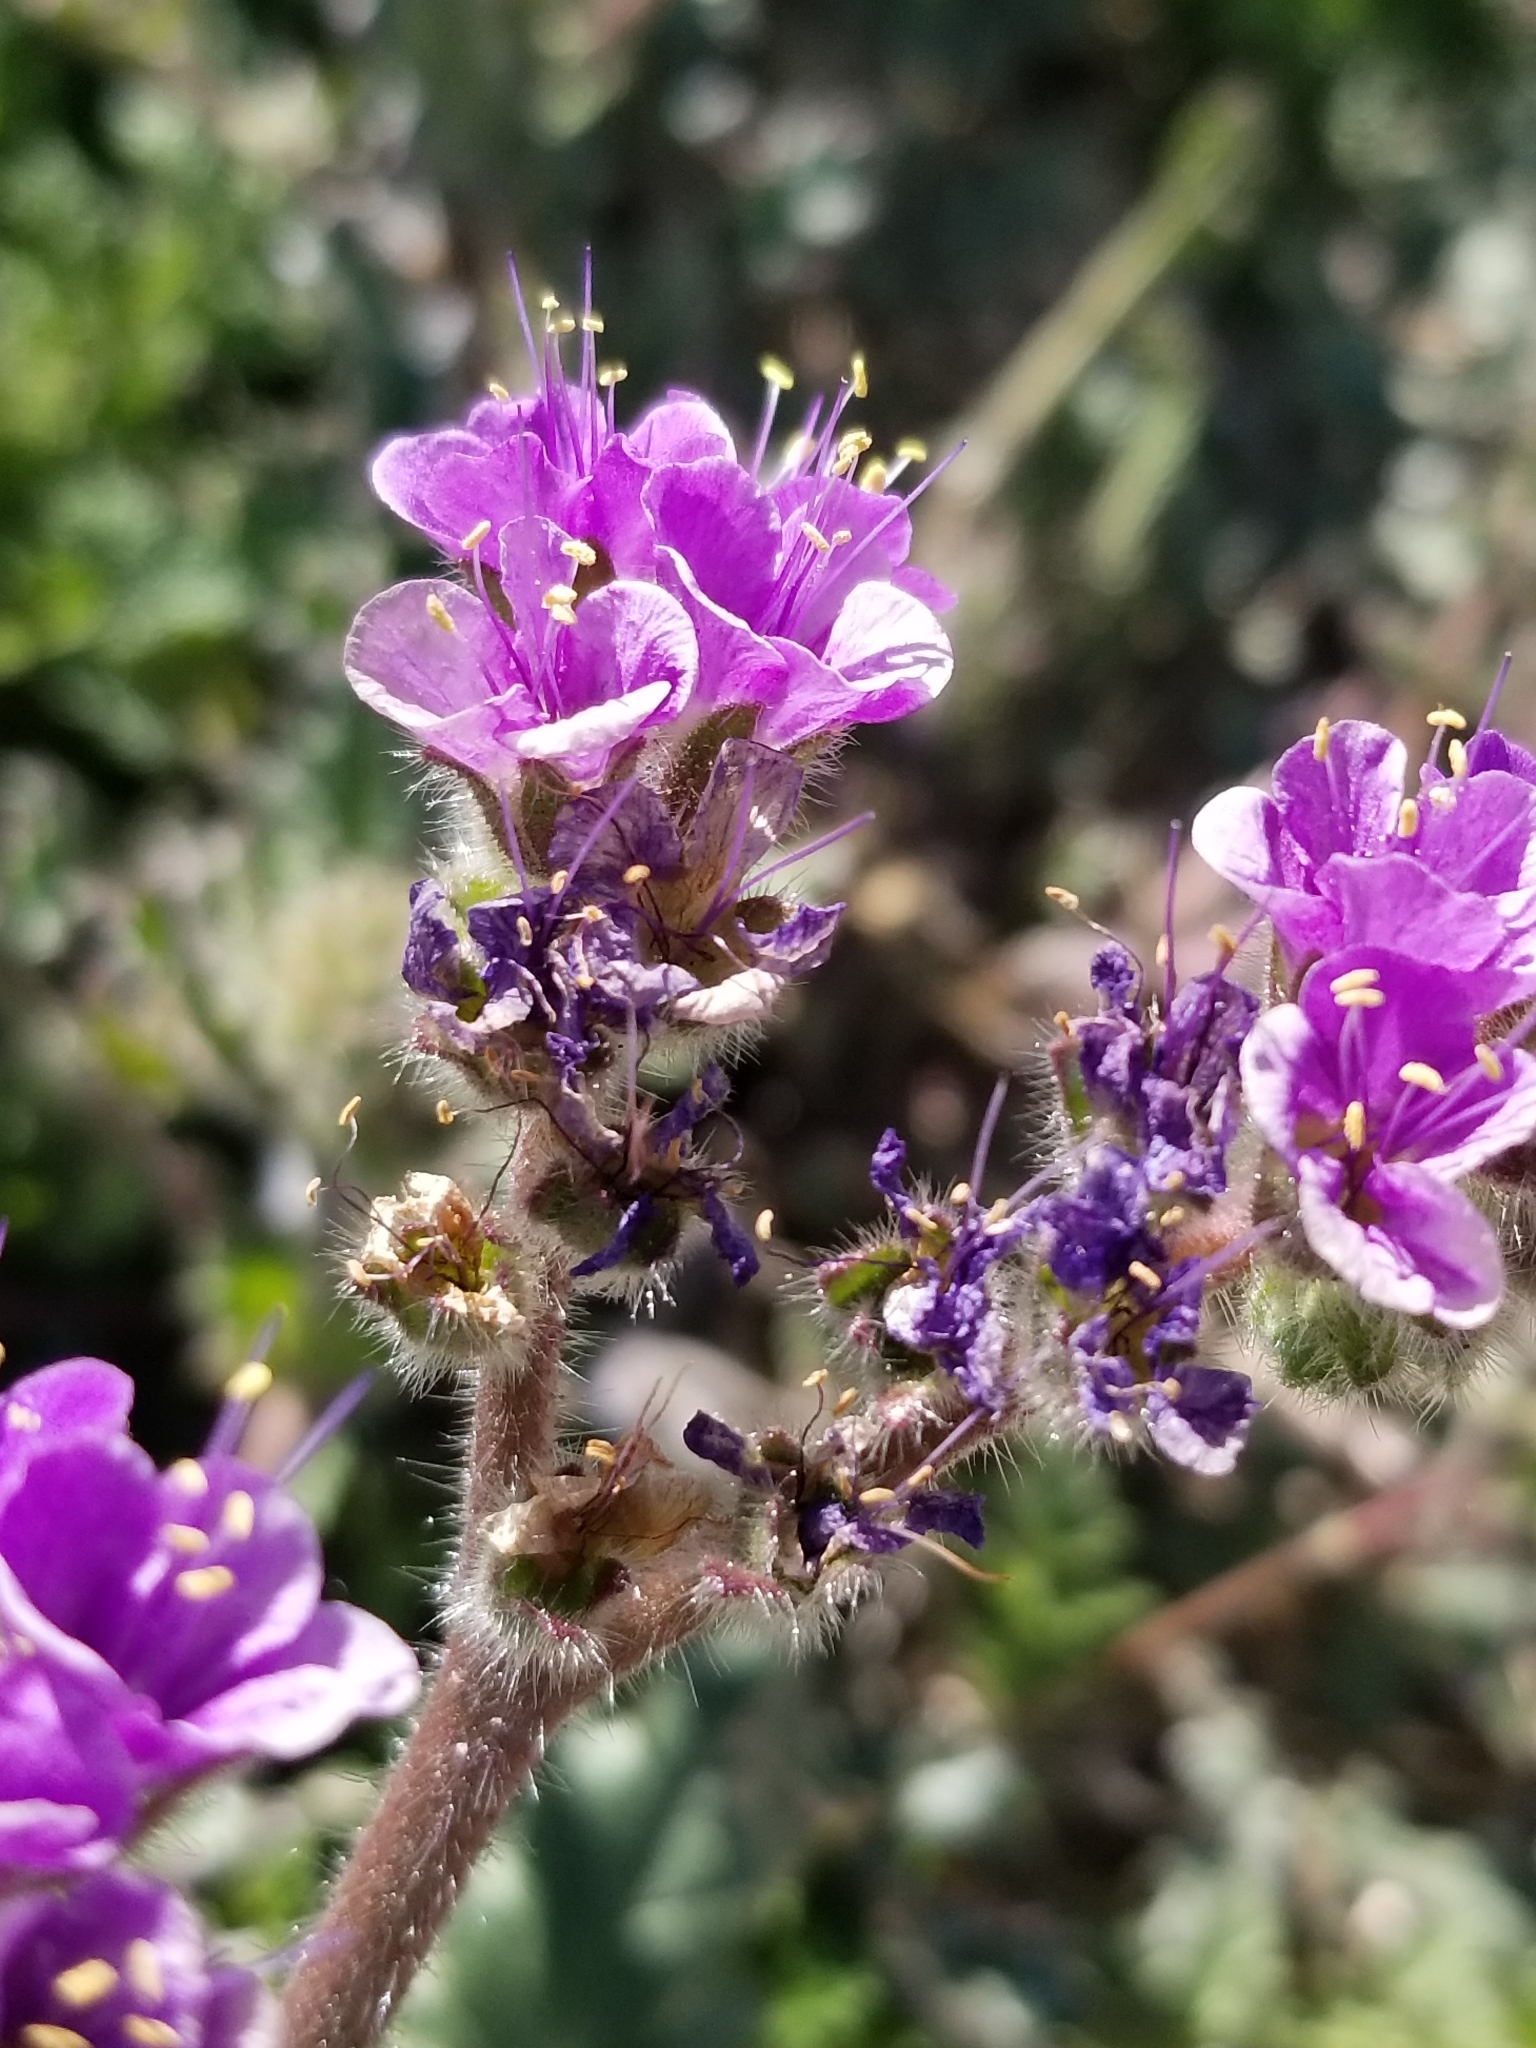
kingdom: Plantae
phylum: Tracheophyta
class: Magnoliopsida
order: Boraginales
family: Hydrophyllaceae
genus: Phacelia
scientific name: Phacelia crenulata
